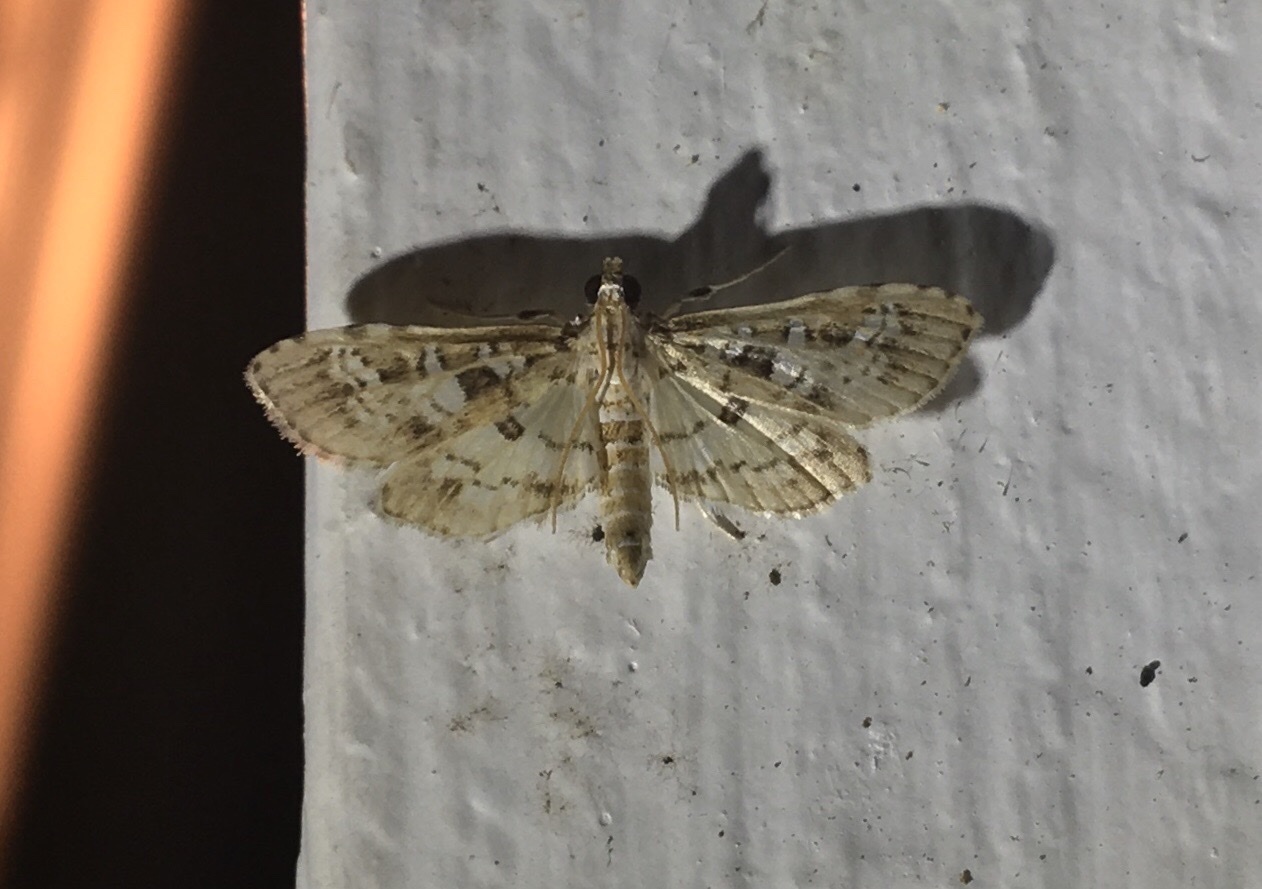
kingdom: Animalia
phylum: Arthropoda
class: Insecta
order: Lepidoptera
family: Crambidae
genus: Samea
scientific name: Samea multiplicalis
